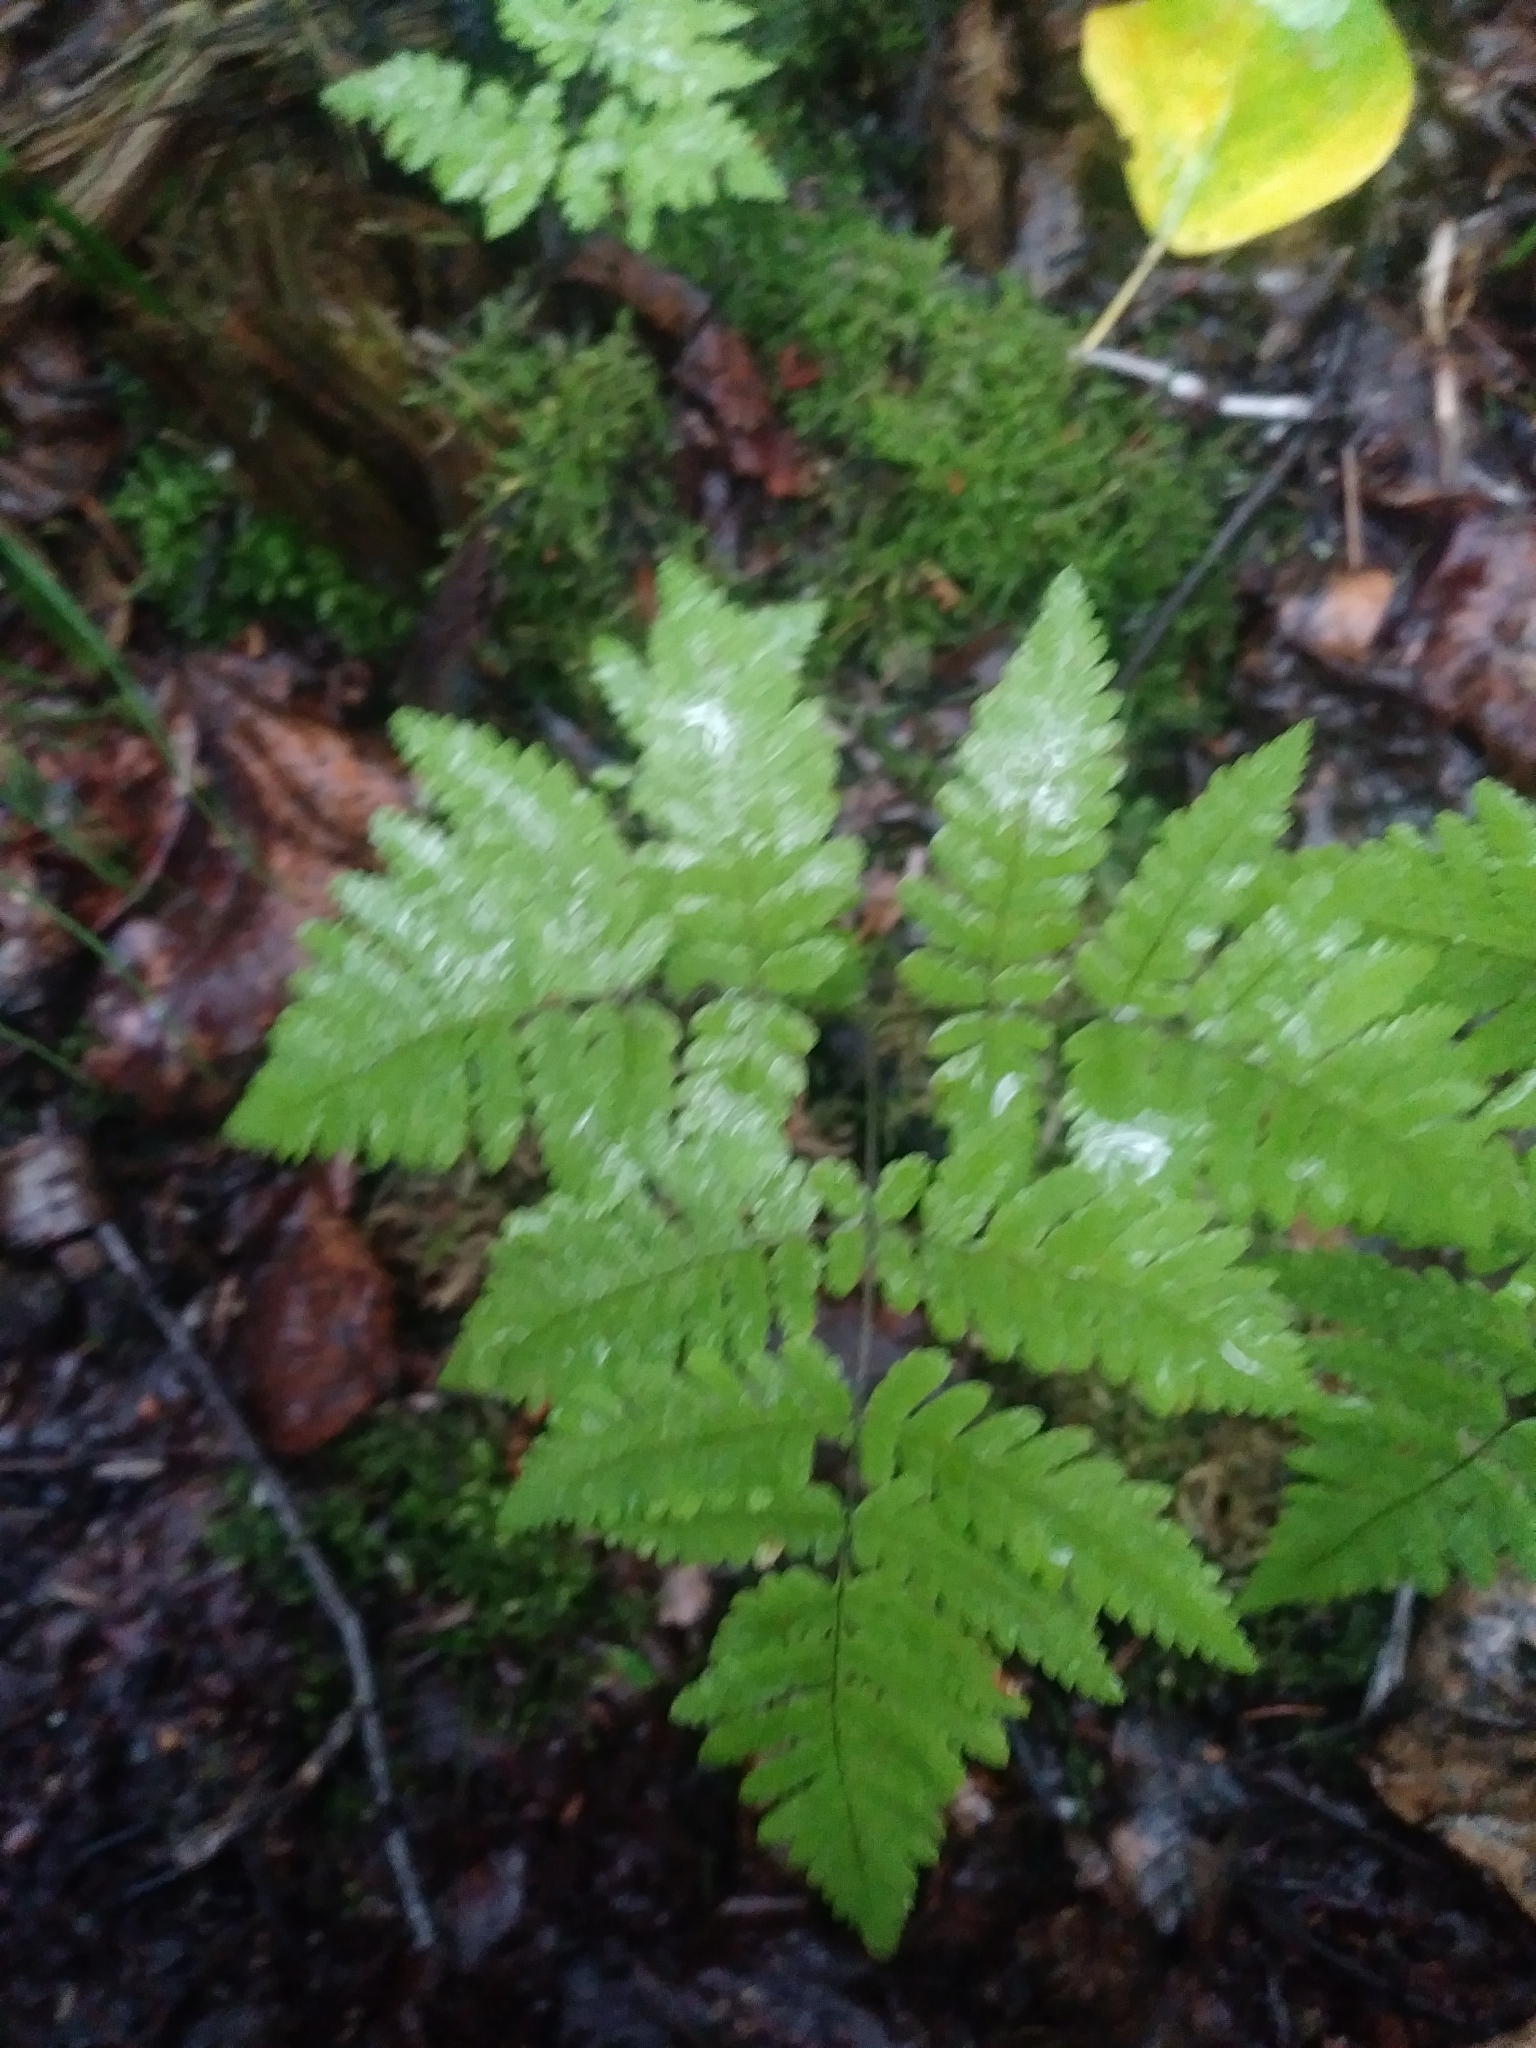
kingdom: Plantae
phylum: Tracheophyta
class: Polypodiopsida
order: Polypodiales
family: Cystopteridaceae
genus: Gymnocarpium
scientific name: Gymnocarpium dryopteris
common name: Oak fern
